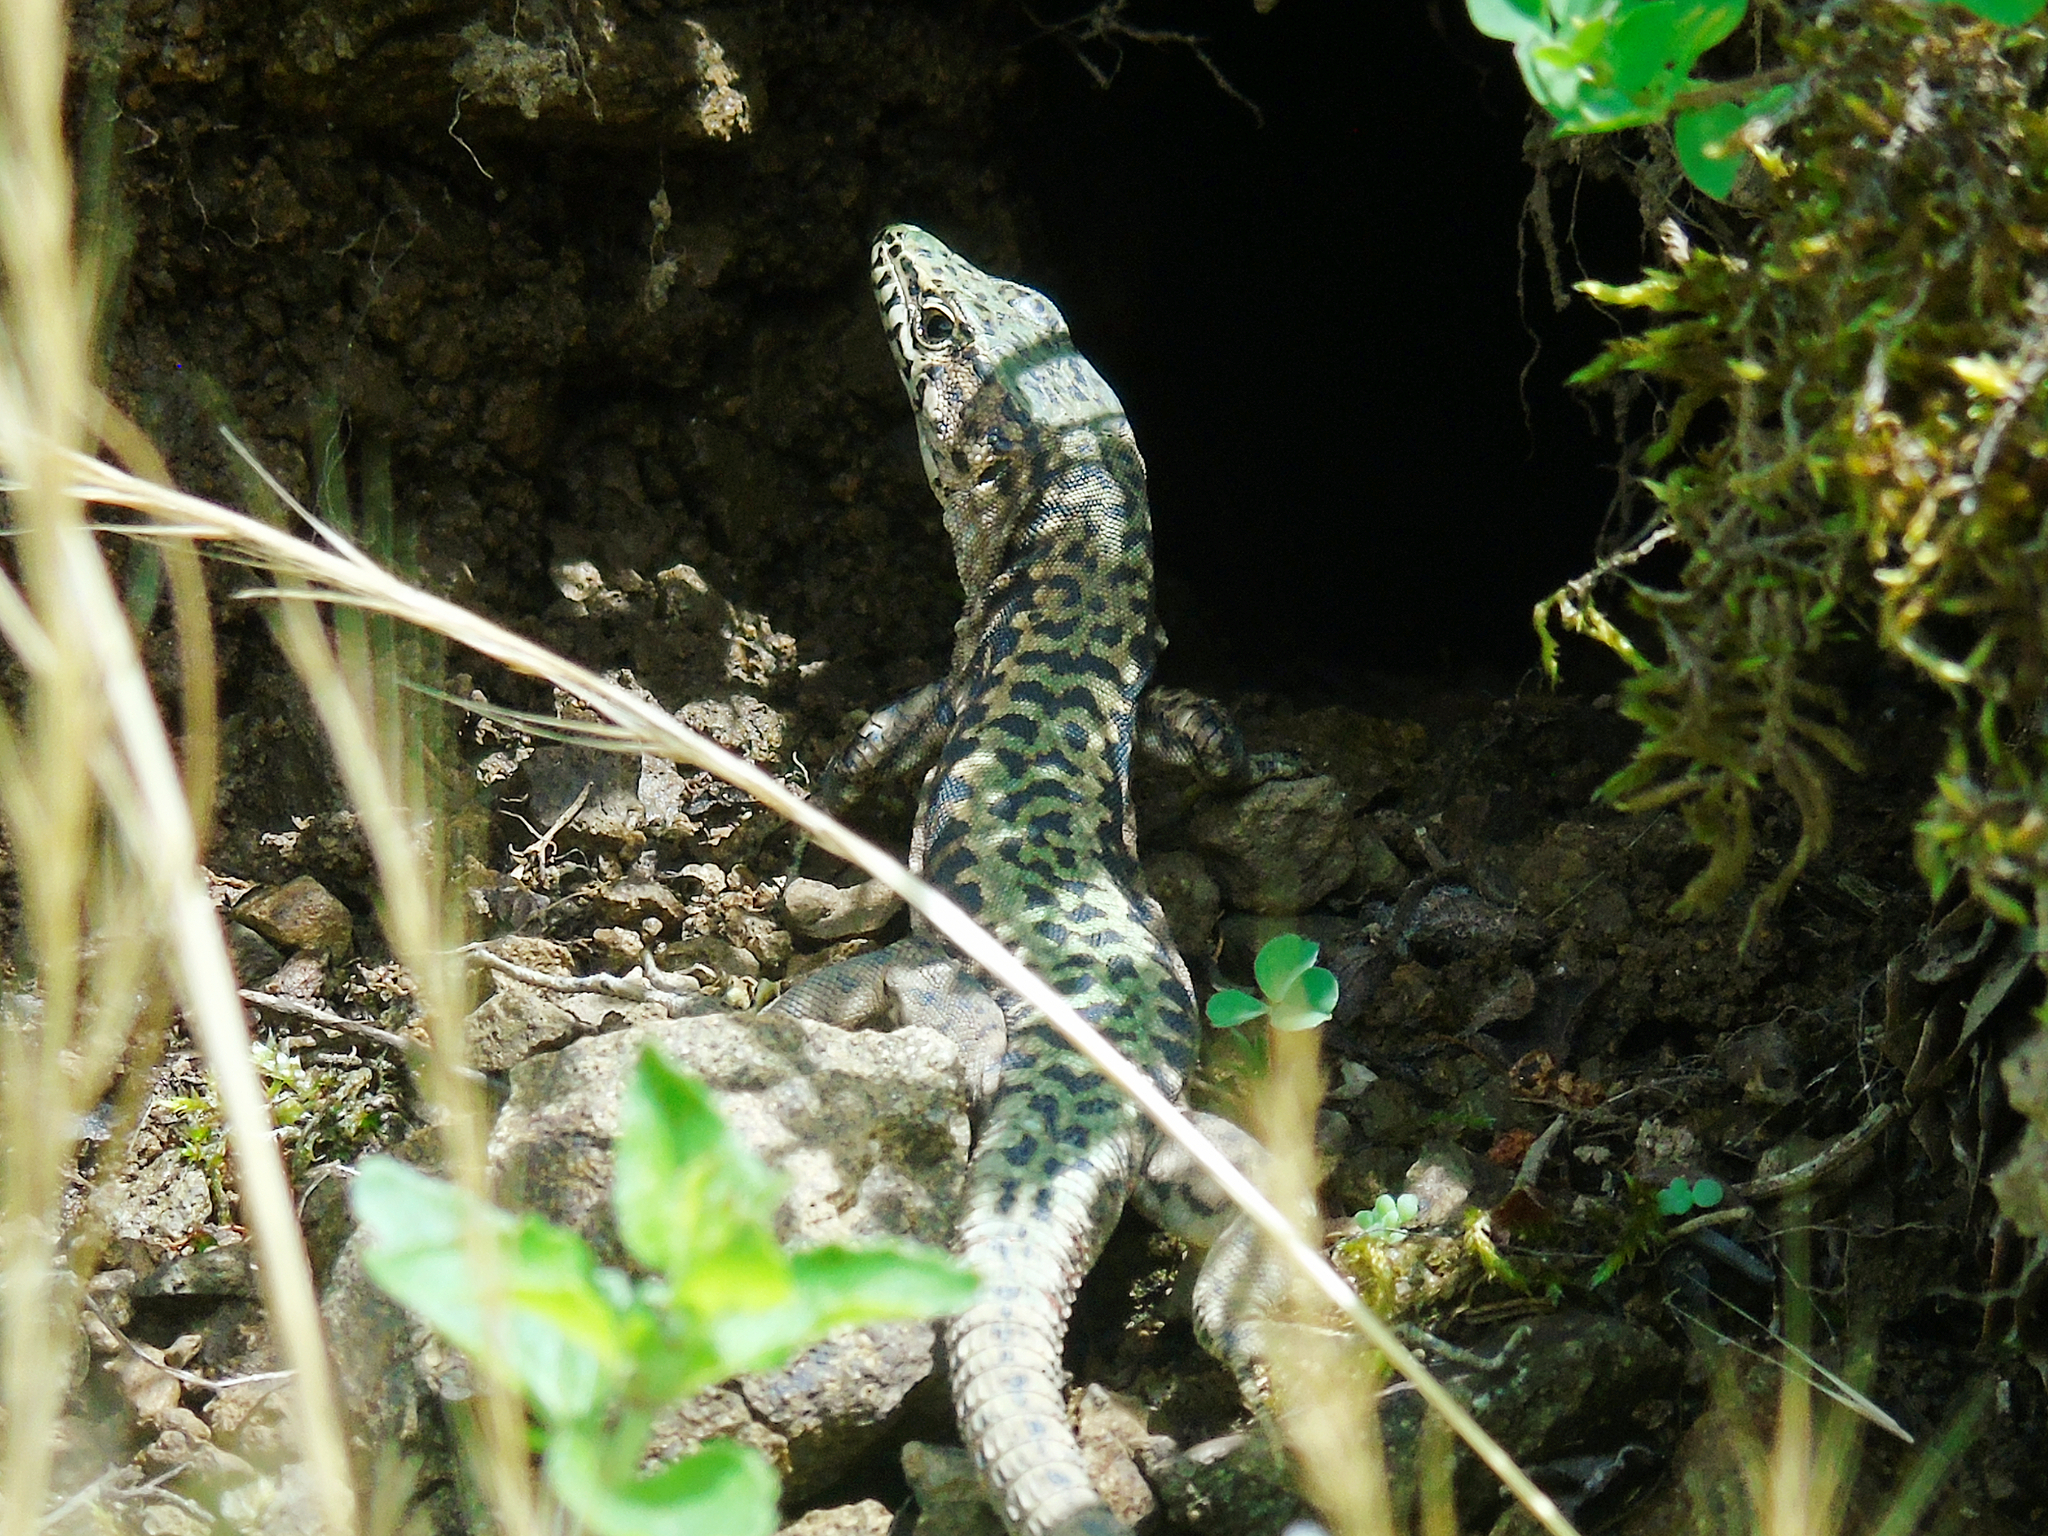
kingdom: Animalia
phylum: Chordata
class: Squamata
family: Lacertidae
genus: Darevskia
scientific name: Darevskia brauneri
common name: Brauner's rock lizard
